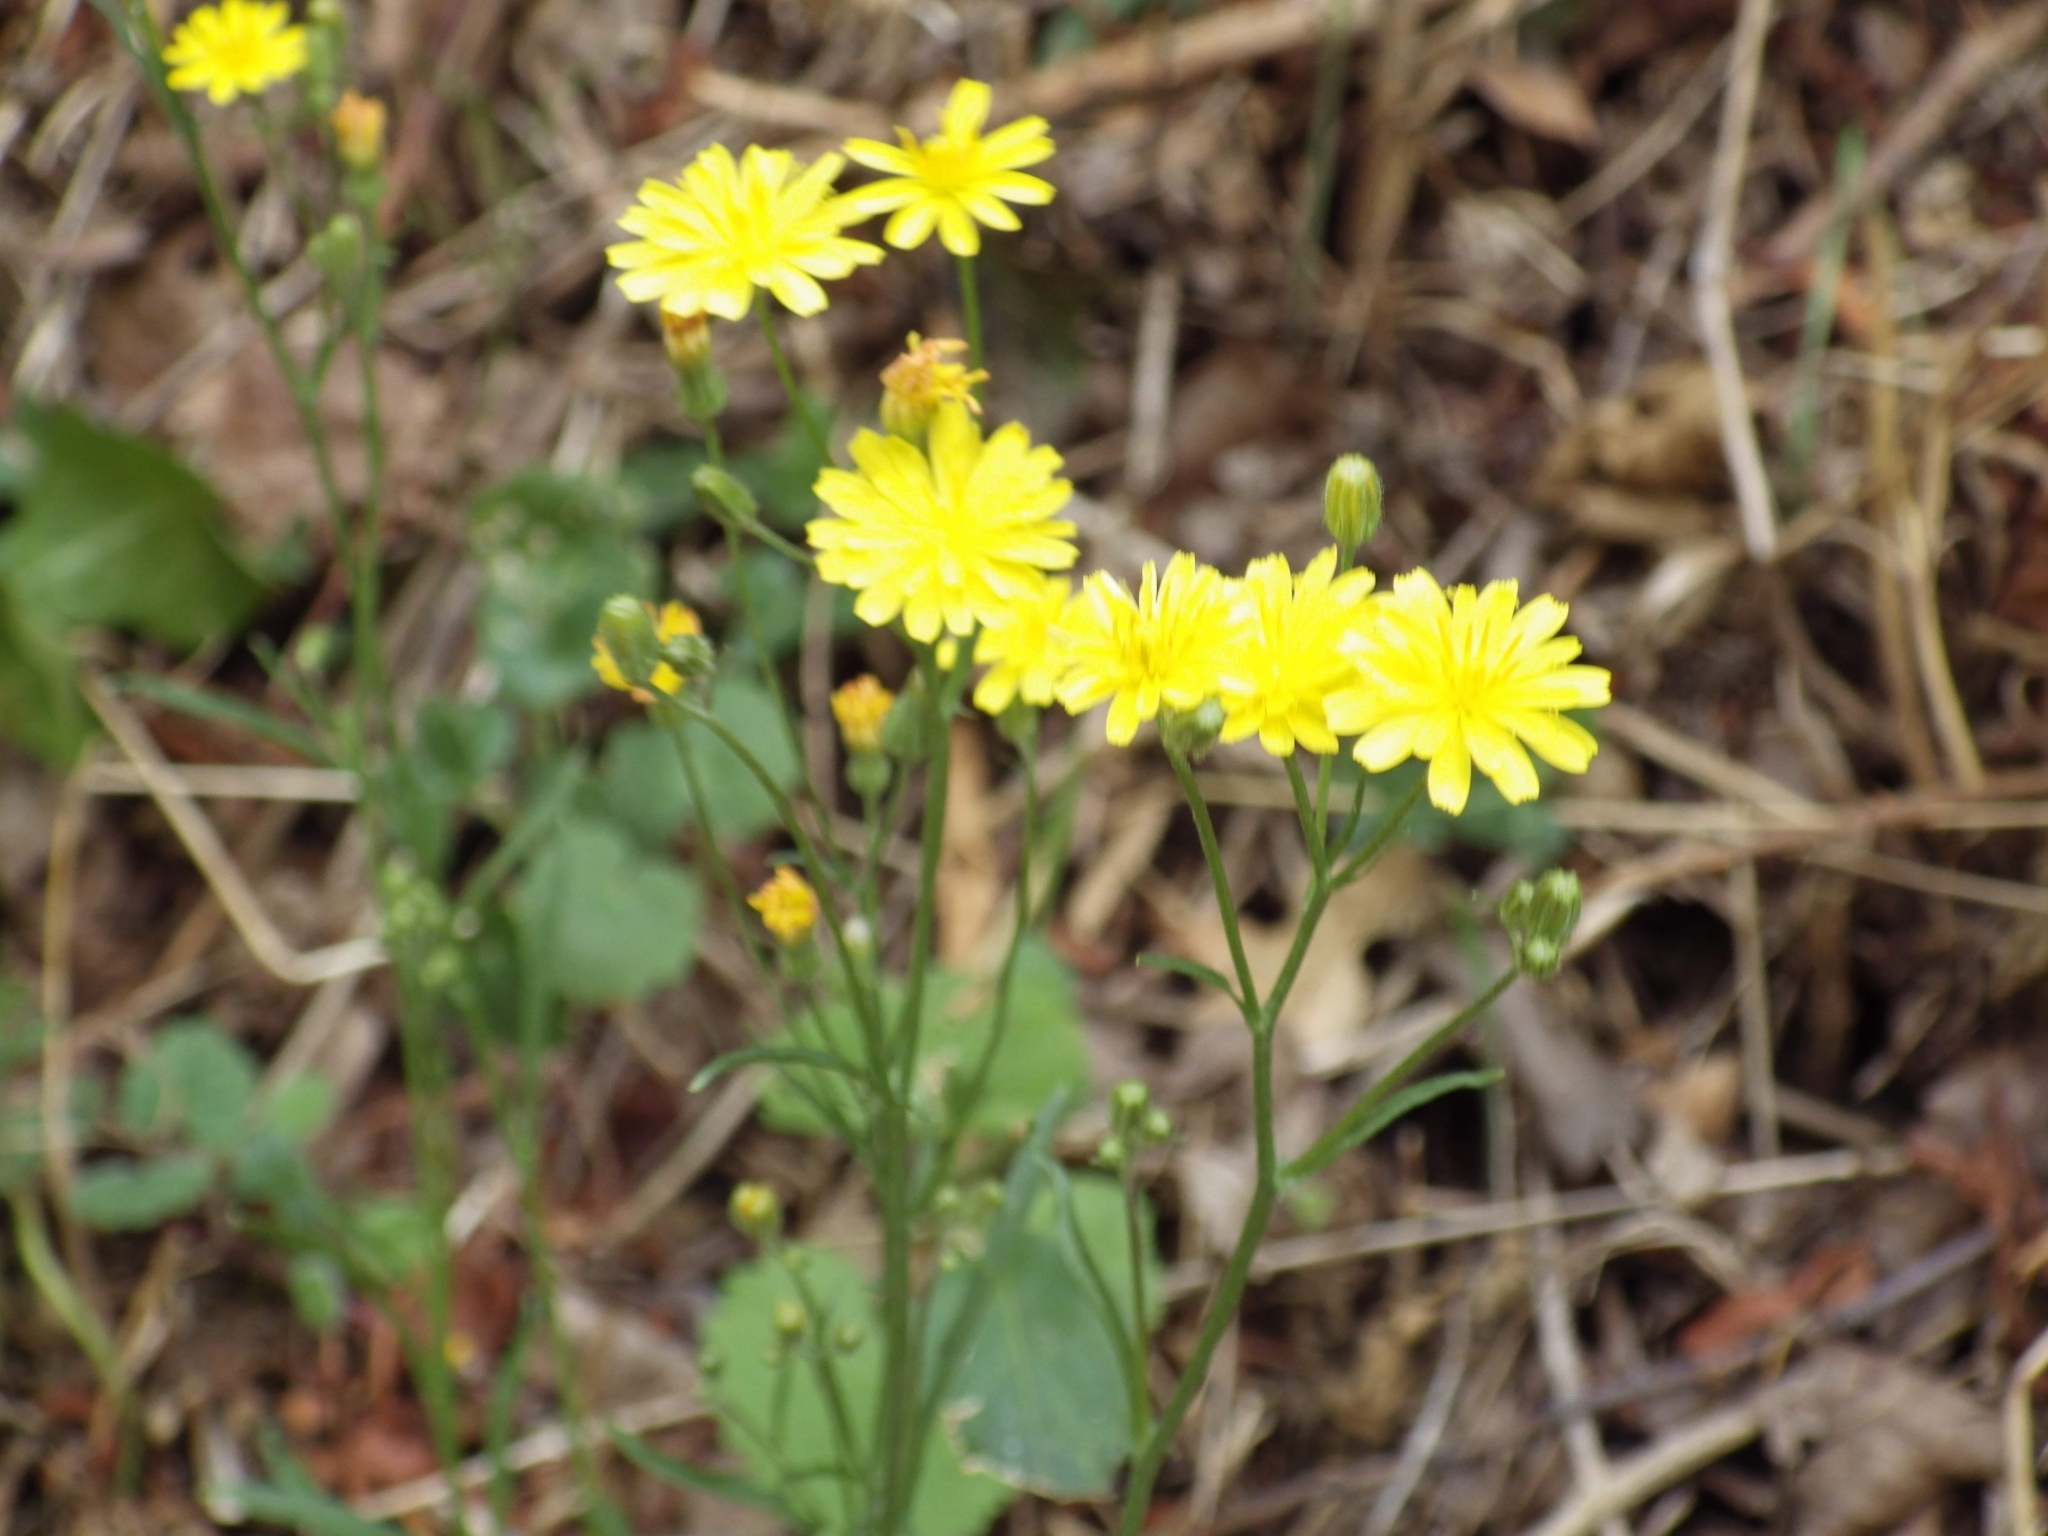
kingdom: Plantae
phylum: Tracheophyta
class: Magnoliopsida
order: Asterales
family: Asteraceae
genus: Lapsana
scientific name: Lapsana communis
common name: Nipplewort
